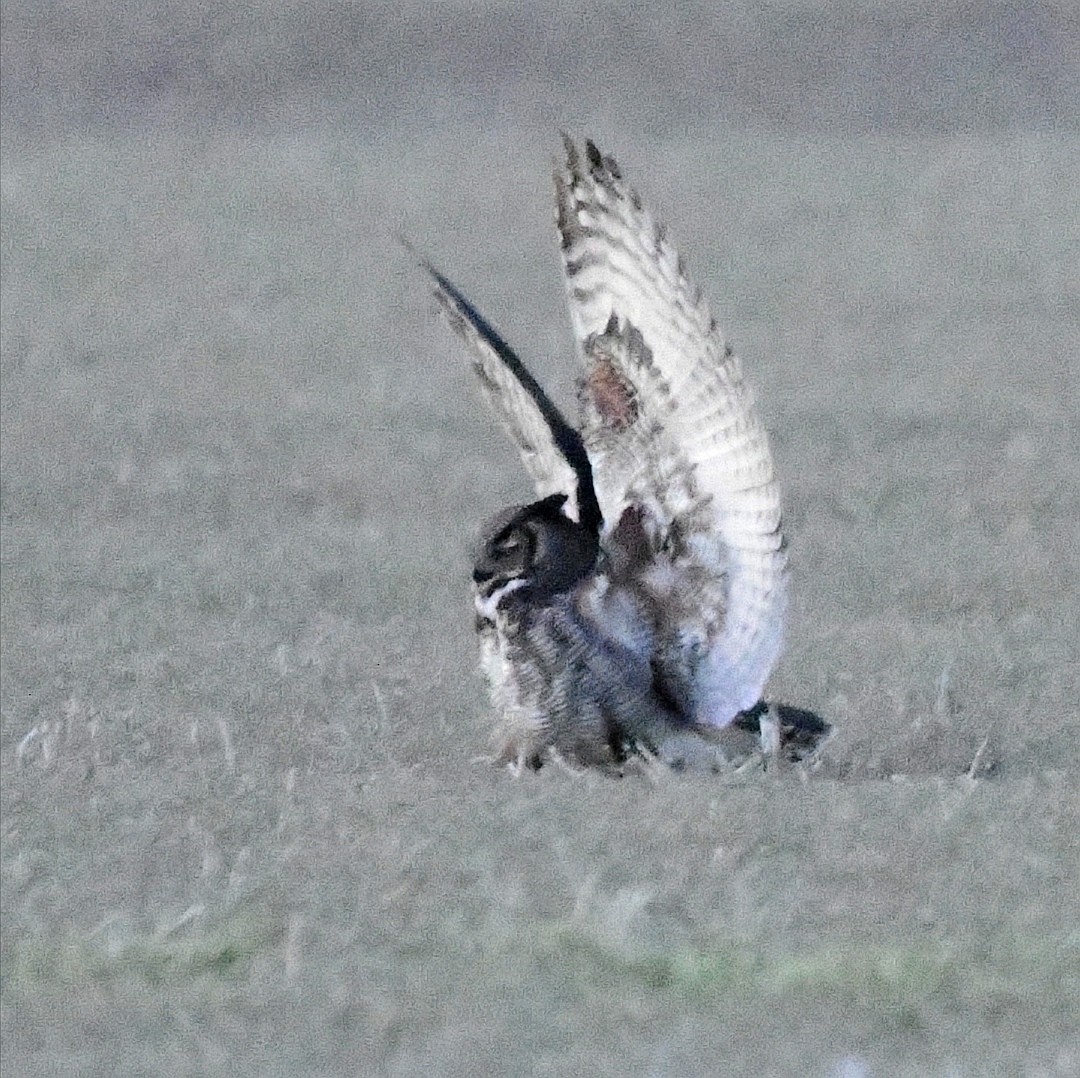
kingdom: Animalia
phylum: Chordata
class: Aves
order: Strigiformes
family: Strigidae
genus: Bubo
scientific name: Bubo virginianus
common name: Great horned owl
